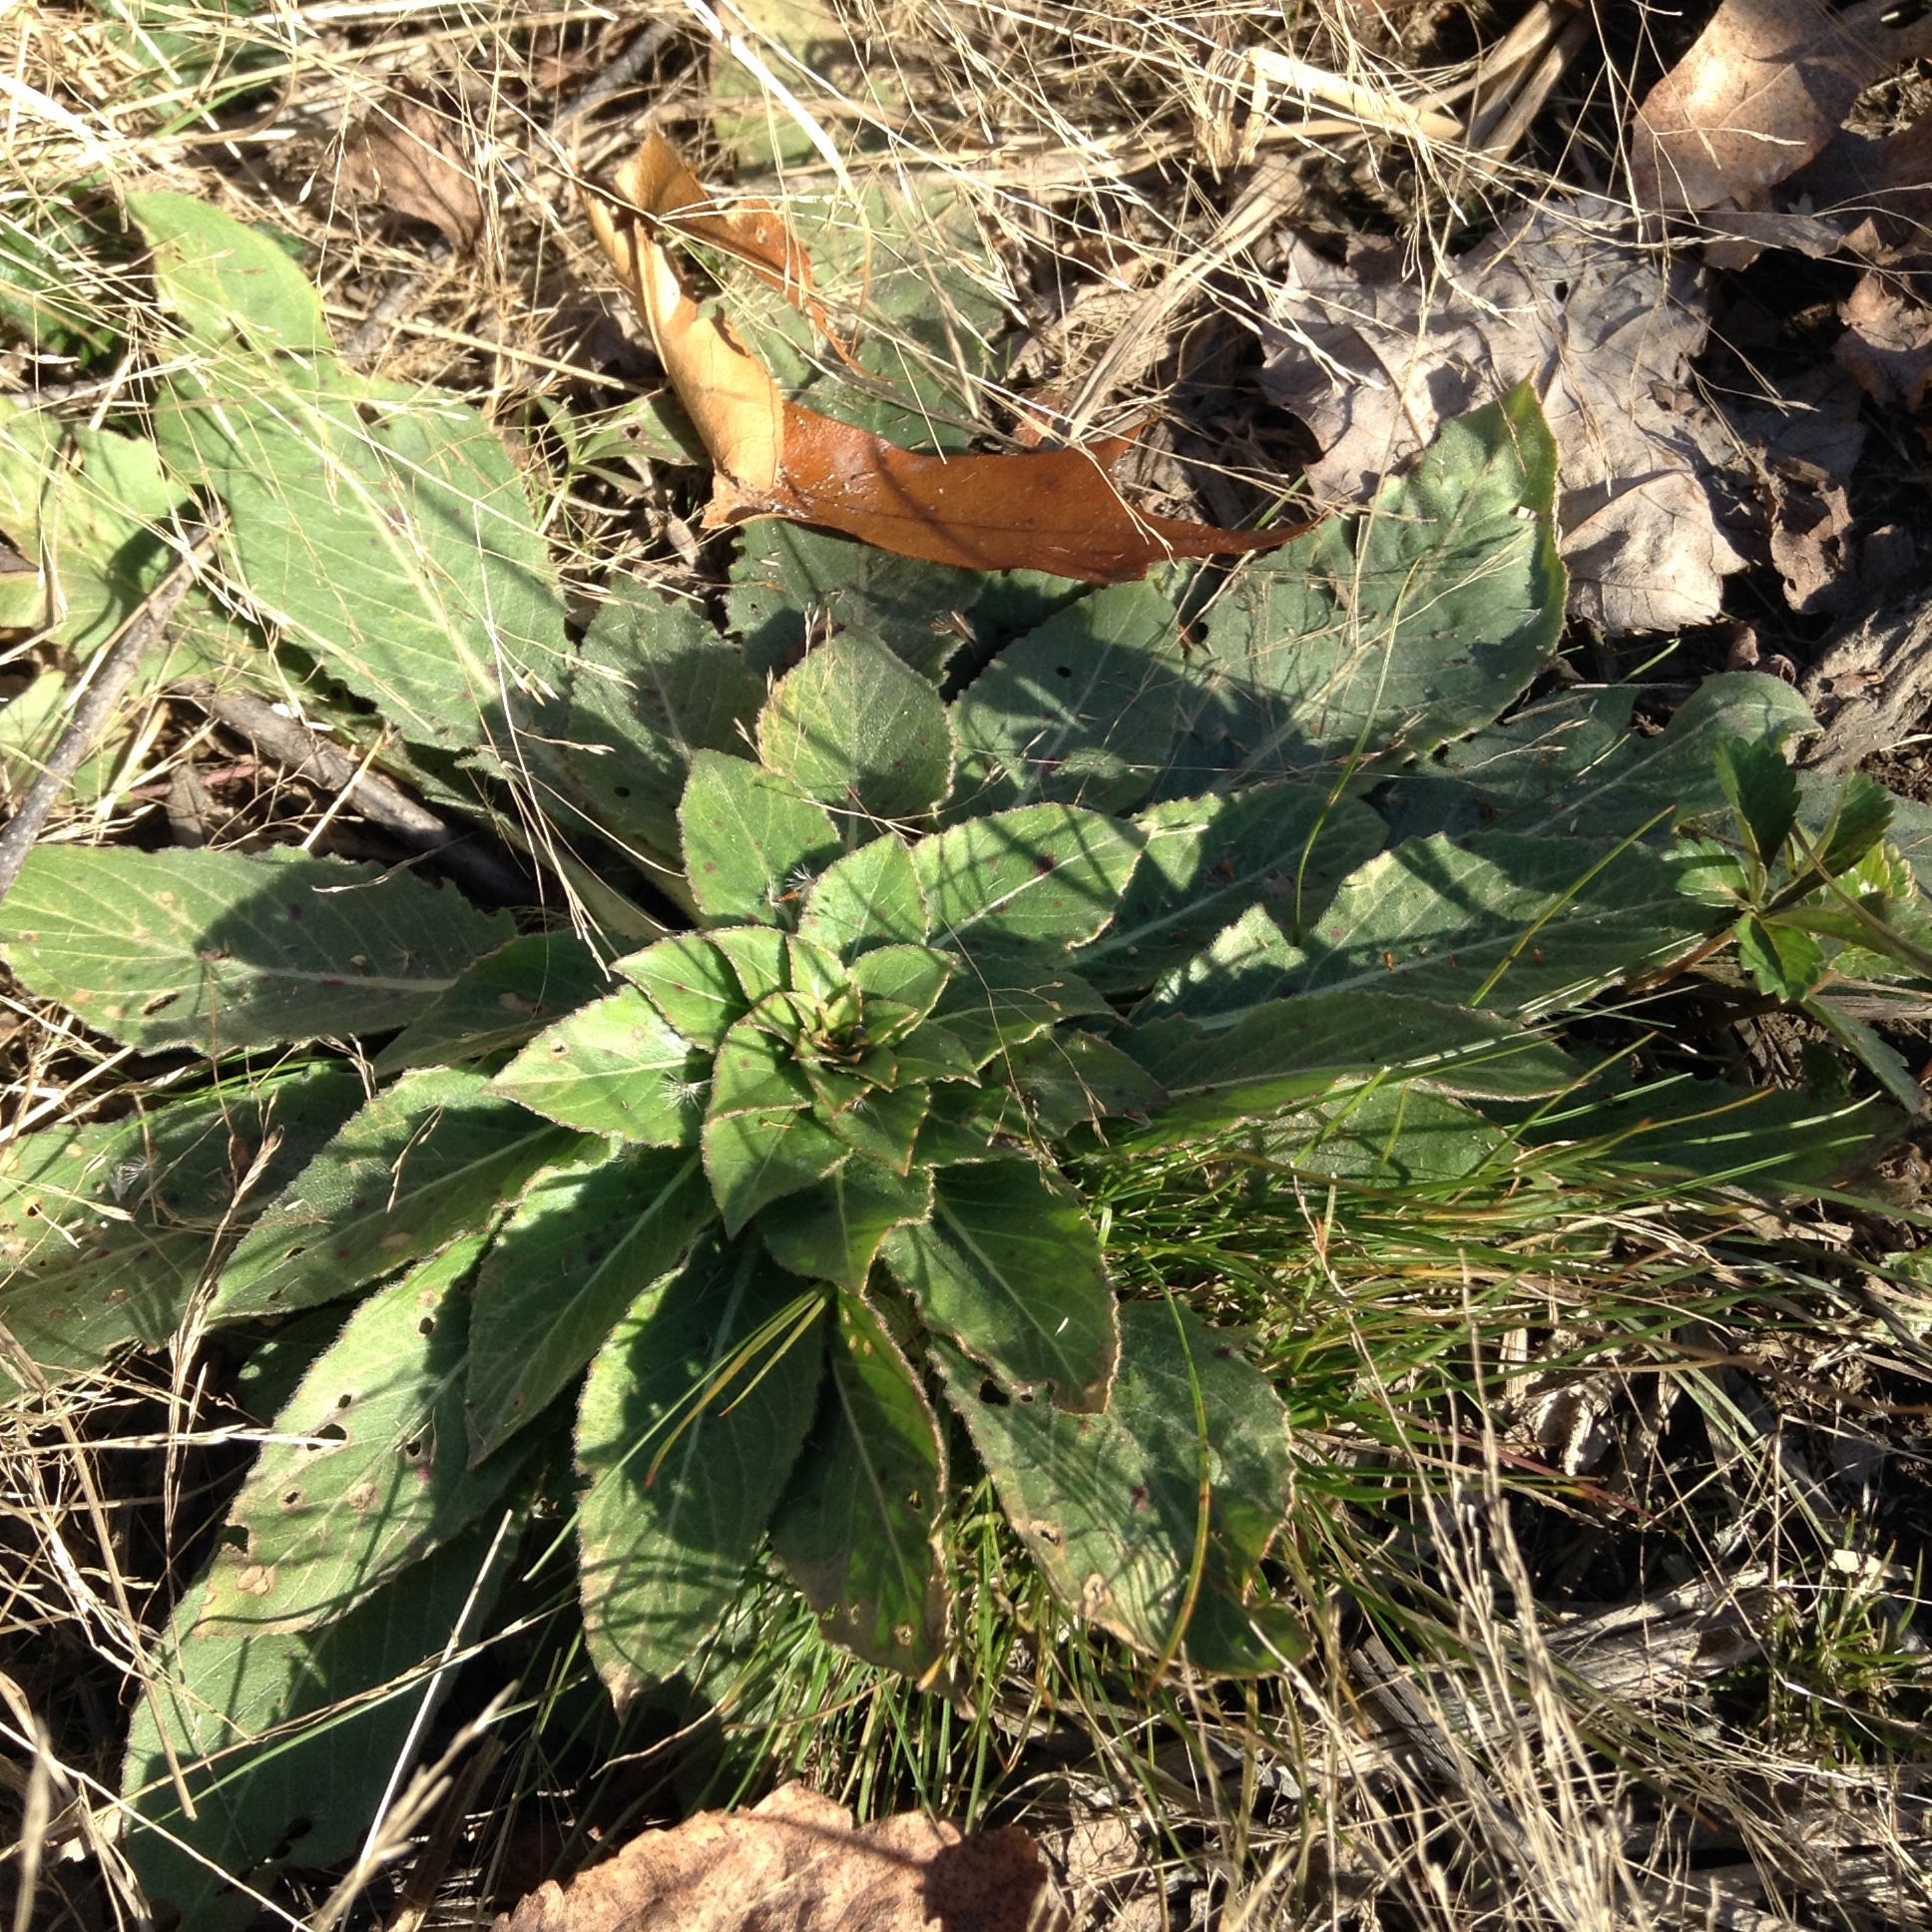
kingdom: Plantae
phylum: Tracheophyta
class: Magnoliopsida
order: Myrtales
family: Onagraceae
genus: Oenothera
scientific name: Oenothera biennis
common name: Common evening-primrose
